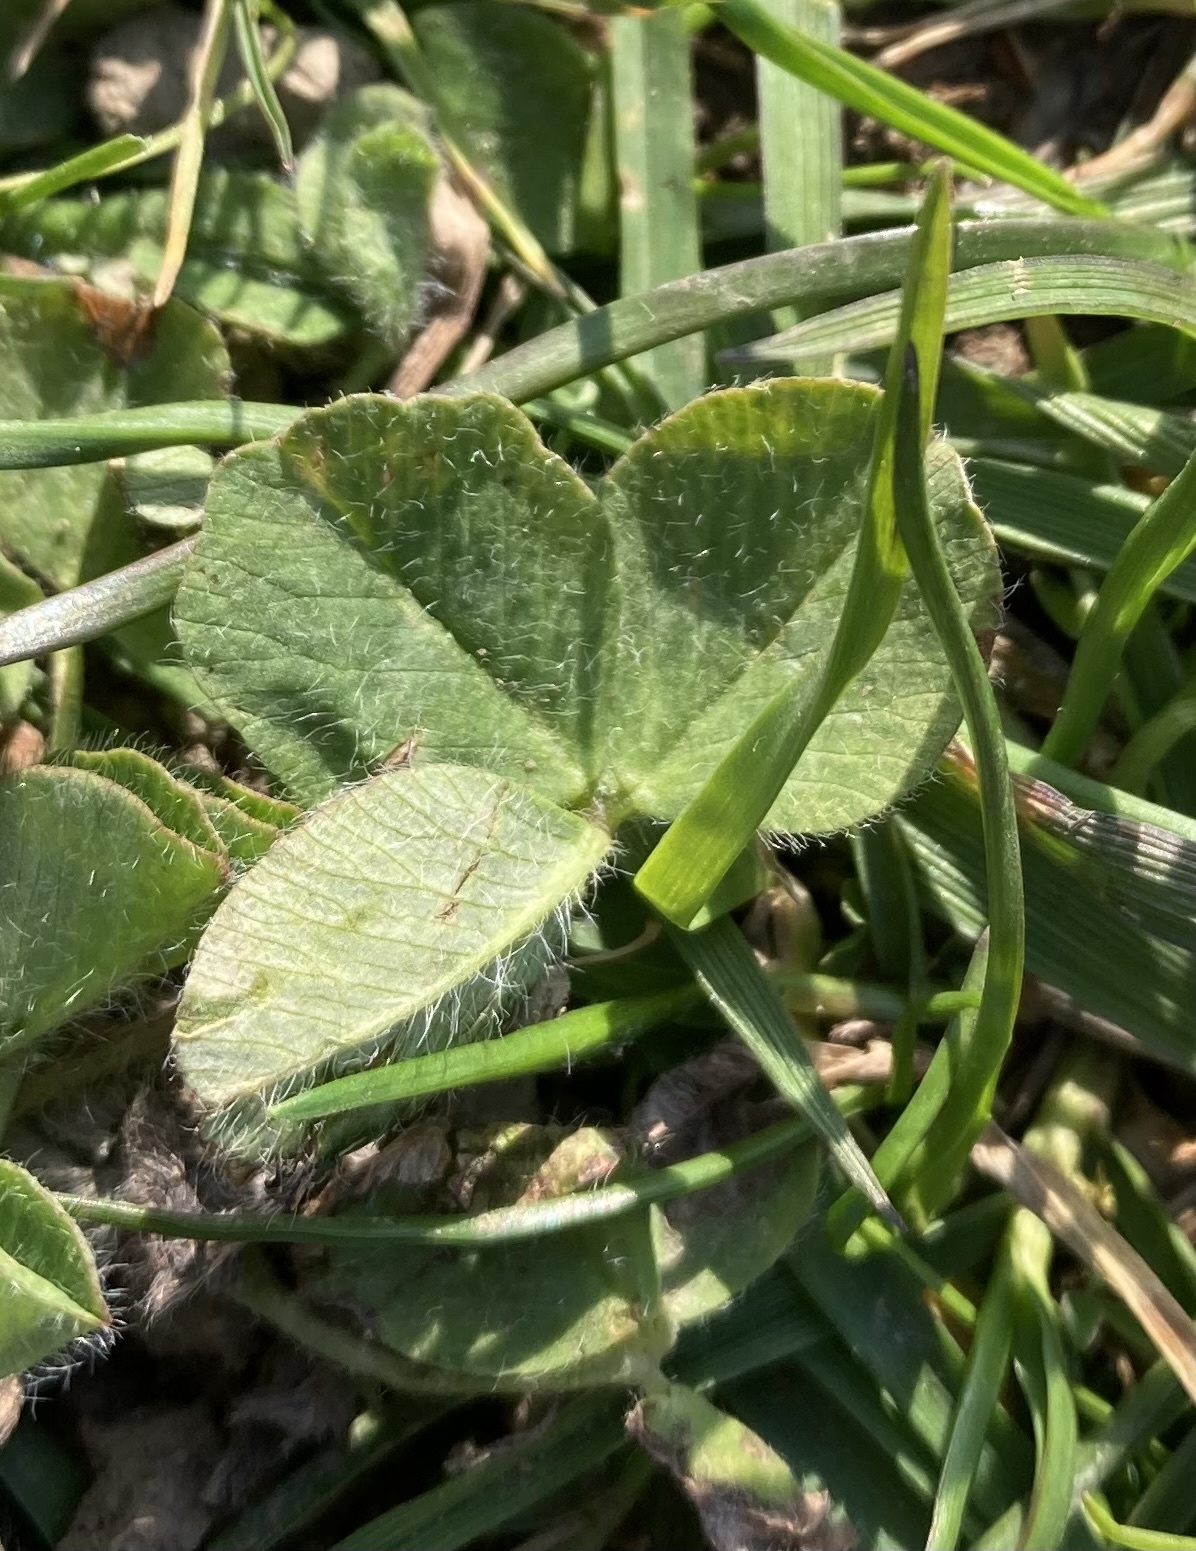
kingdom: Plantae
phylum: Tracheophyta
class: Magnoliopsida
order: Fabales
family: Fabaceae
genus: Trifolium
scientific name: Trifolium subterraneum
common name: Subterranean clover
